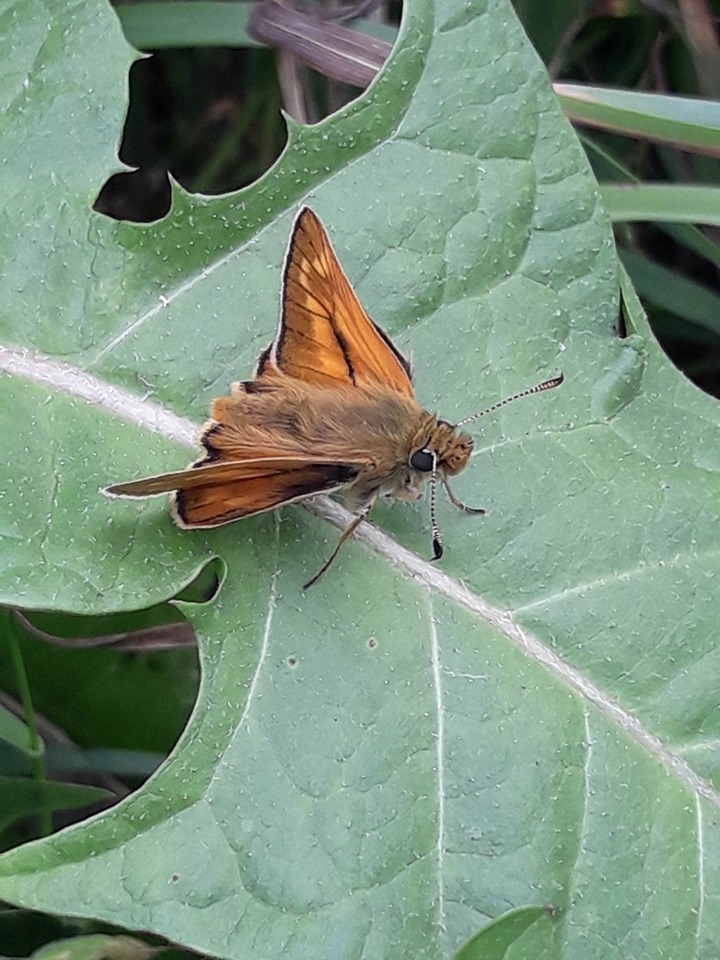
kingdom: Animalia
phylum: Arthropoda
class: Insecta
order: Lepidoptera
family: Hesperiidae
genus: Ochlodes
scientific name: Ochlodes venata
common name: Large skipper
